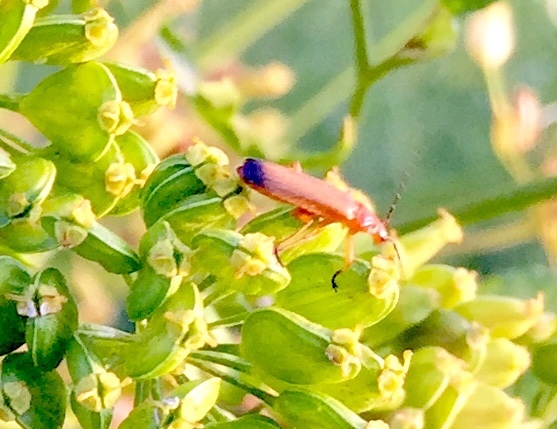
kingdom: Animalia
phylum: Arthropoda
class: Insecta
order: Coleoptera
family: Cantharidae
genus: Rhagonycha
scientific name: Rhagonycha fulva
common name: Common red soldier beetle
